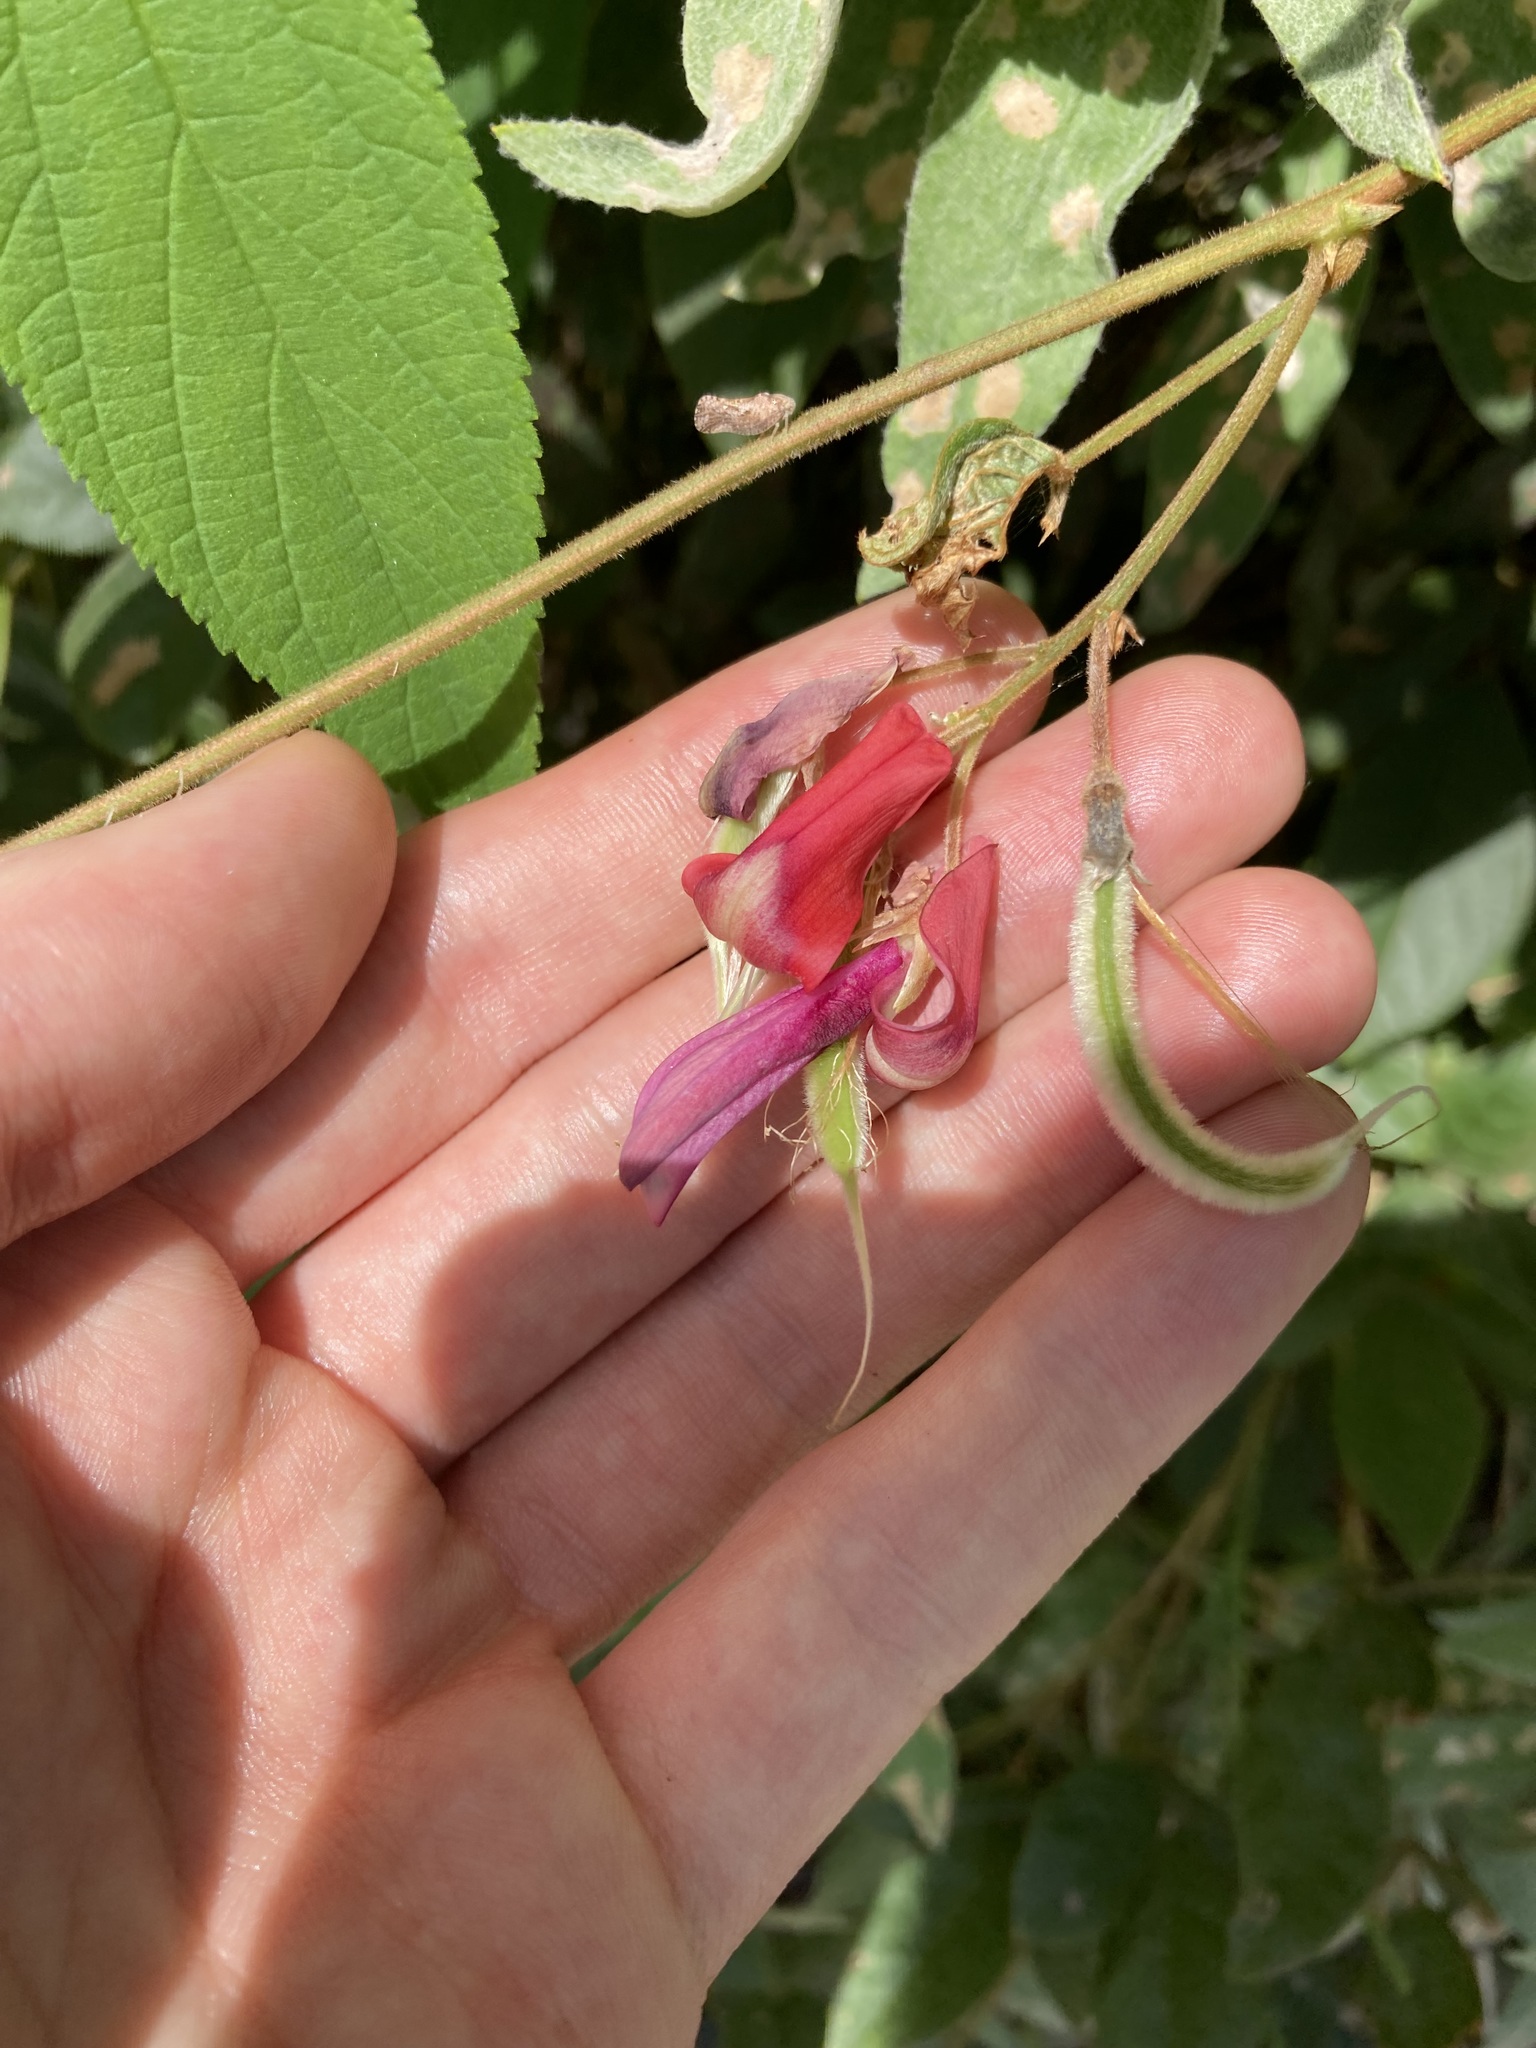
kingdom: Plantae
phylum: Tracheophyta
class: Magnoliopsida
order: Fabales
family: Fabaceae
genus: Kennedia
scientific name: Kennedia rubicunda
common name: Red kennedy-pea
